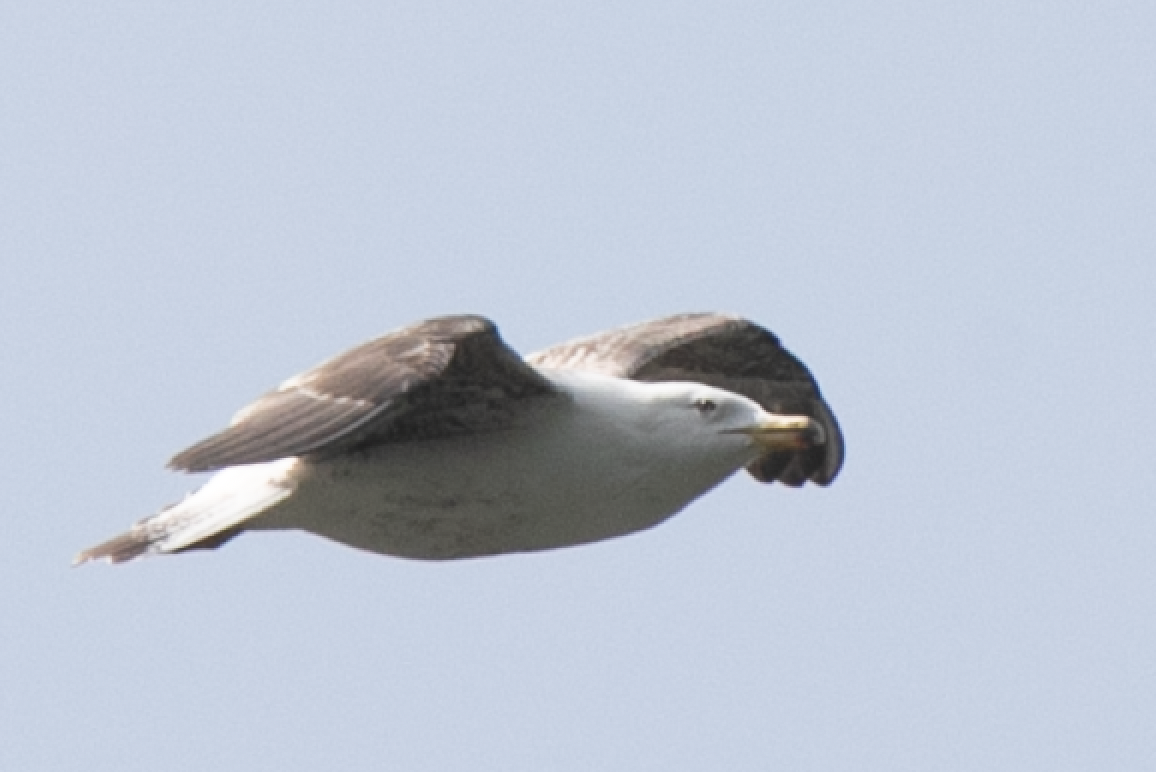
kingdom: Animalia
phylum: Chordata
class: Aves
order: Charadriiformes
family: Laridae
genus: Larus
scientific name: Larus michahellis
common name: Yellow-legged gull
